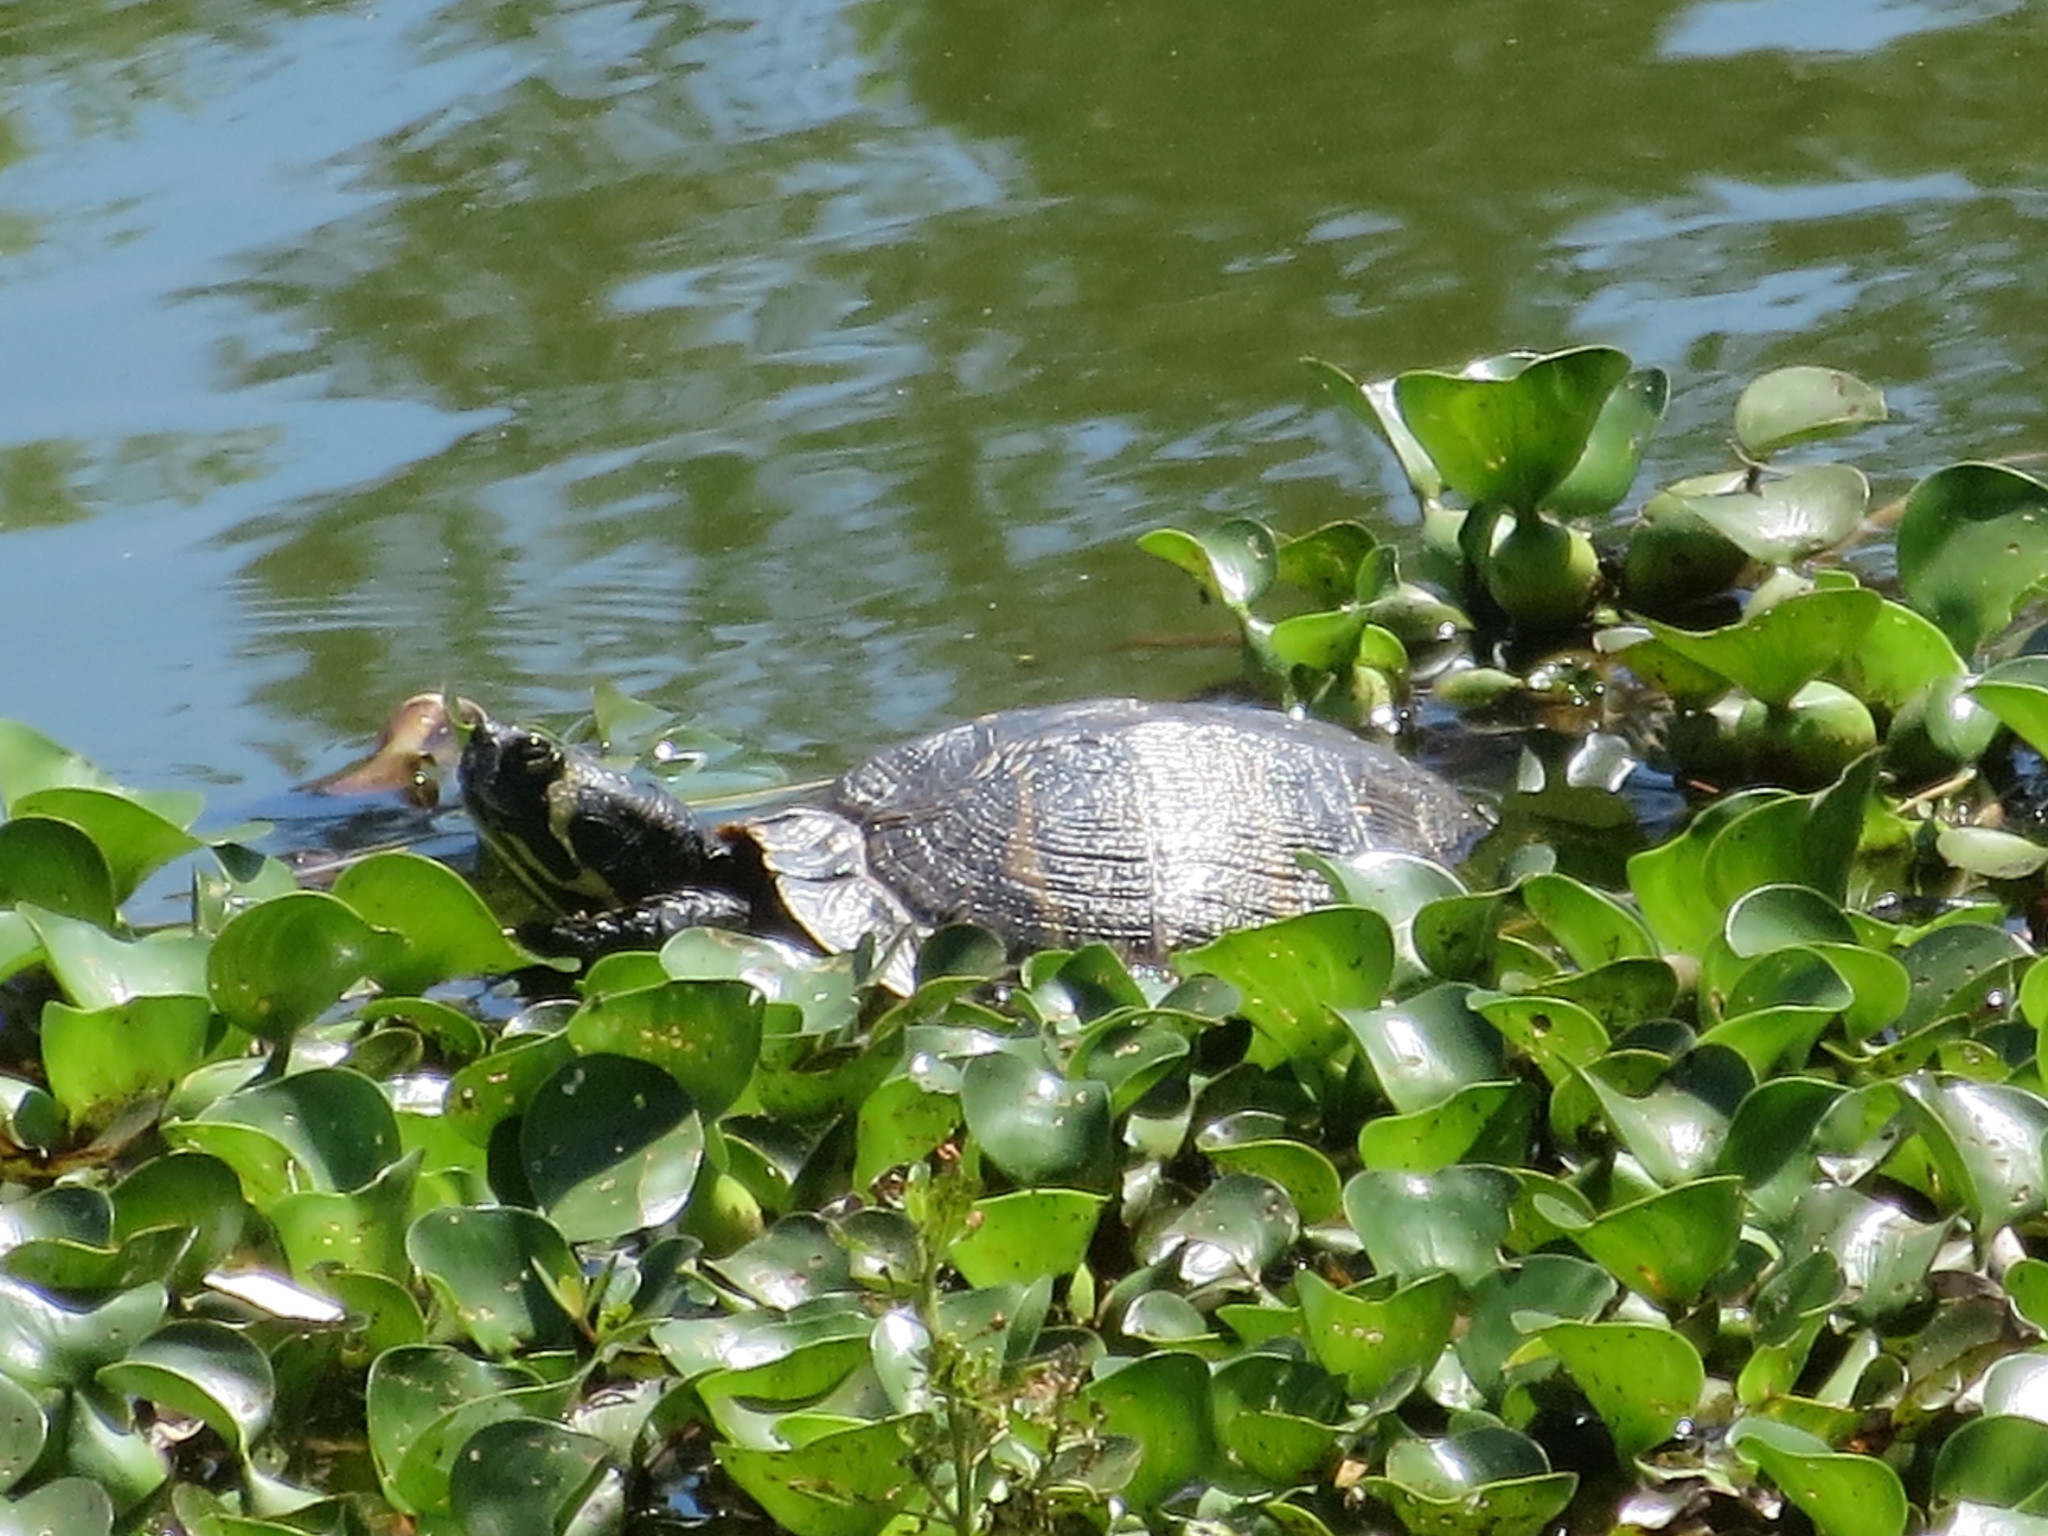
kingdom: Animalia
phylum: Chordata
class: Testudines
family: Emydidae
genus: Trachemys
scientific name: Trachemys scripta
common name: Slider
